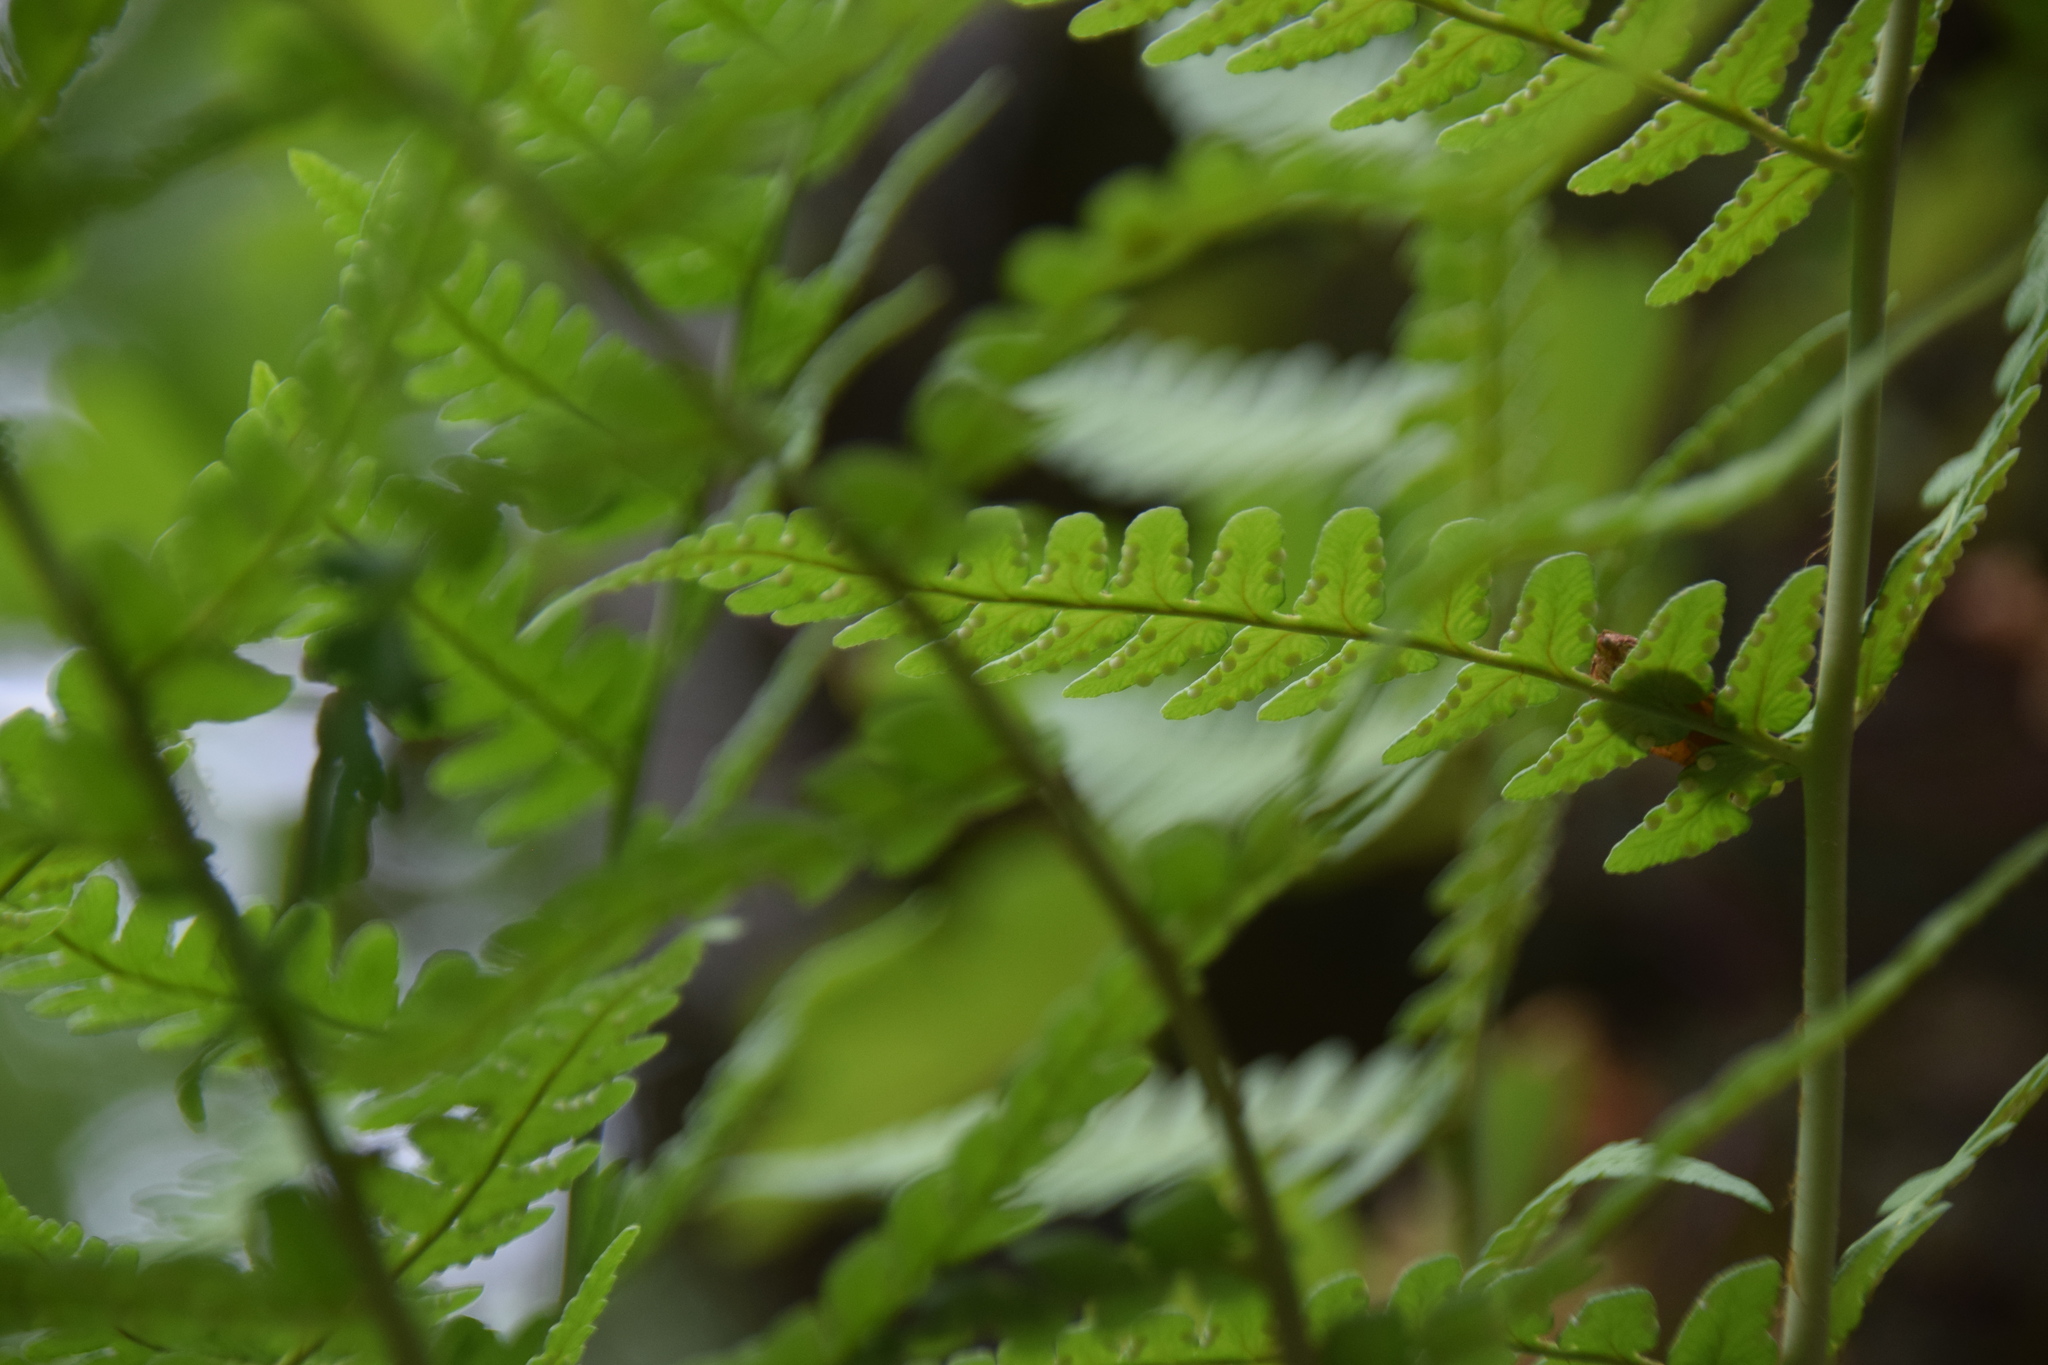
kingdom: Plantae
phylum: Tracheophyta
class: Polypodiopsida
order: Polypodiales
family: Dryopteridaceae
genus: Dryopteris
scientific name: Dryopteris marginalis
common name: Marginal wood fern
